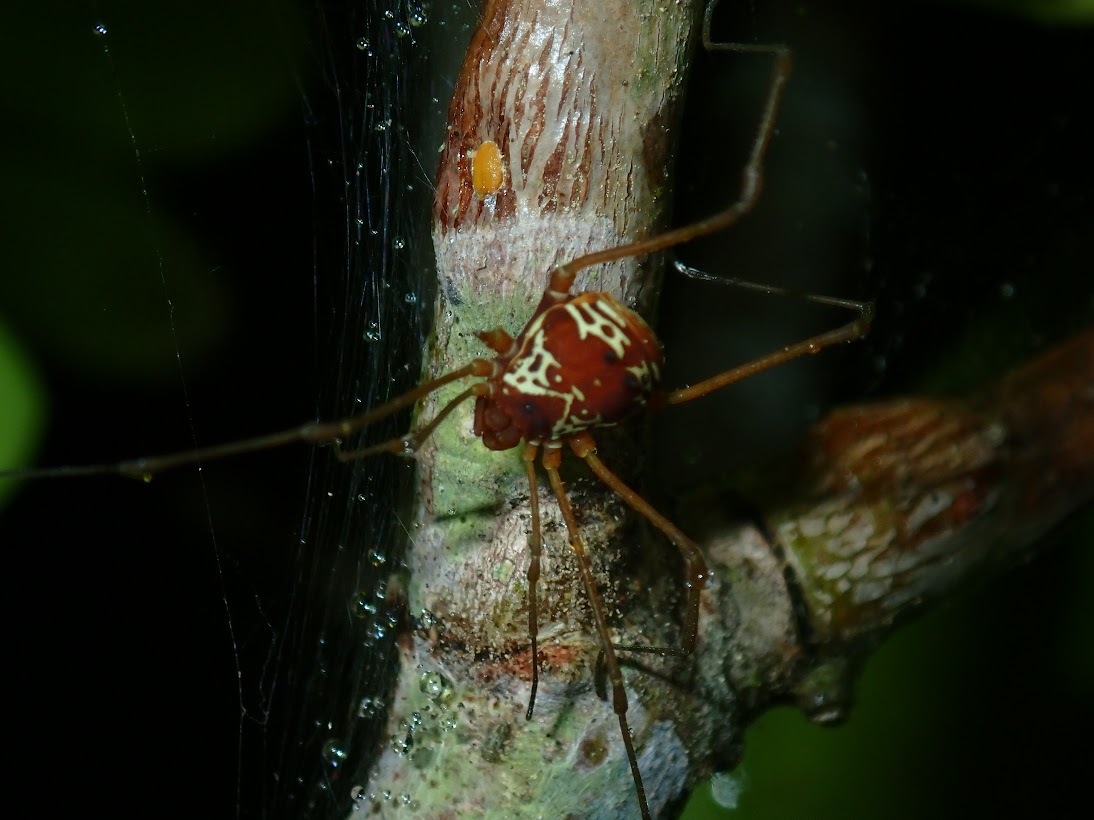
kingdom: Animalia
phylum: Arthropoda
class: Arachnida
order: Opiliones
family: Cosmetidae
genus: Eucynorta
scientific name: Eucynorta rooneyi
